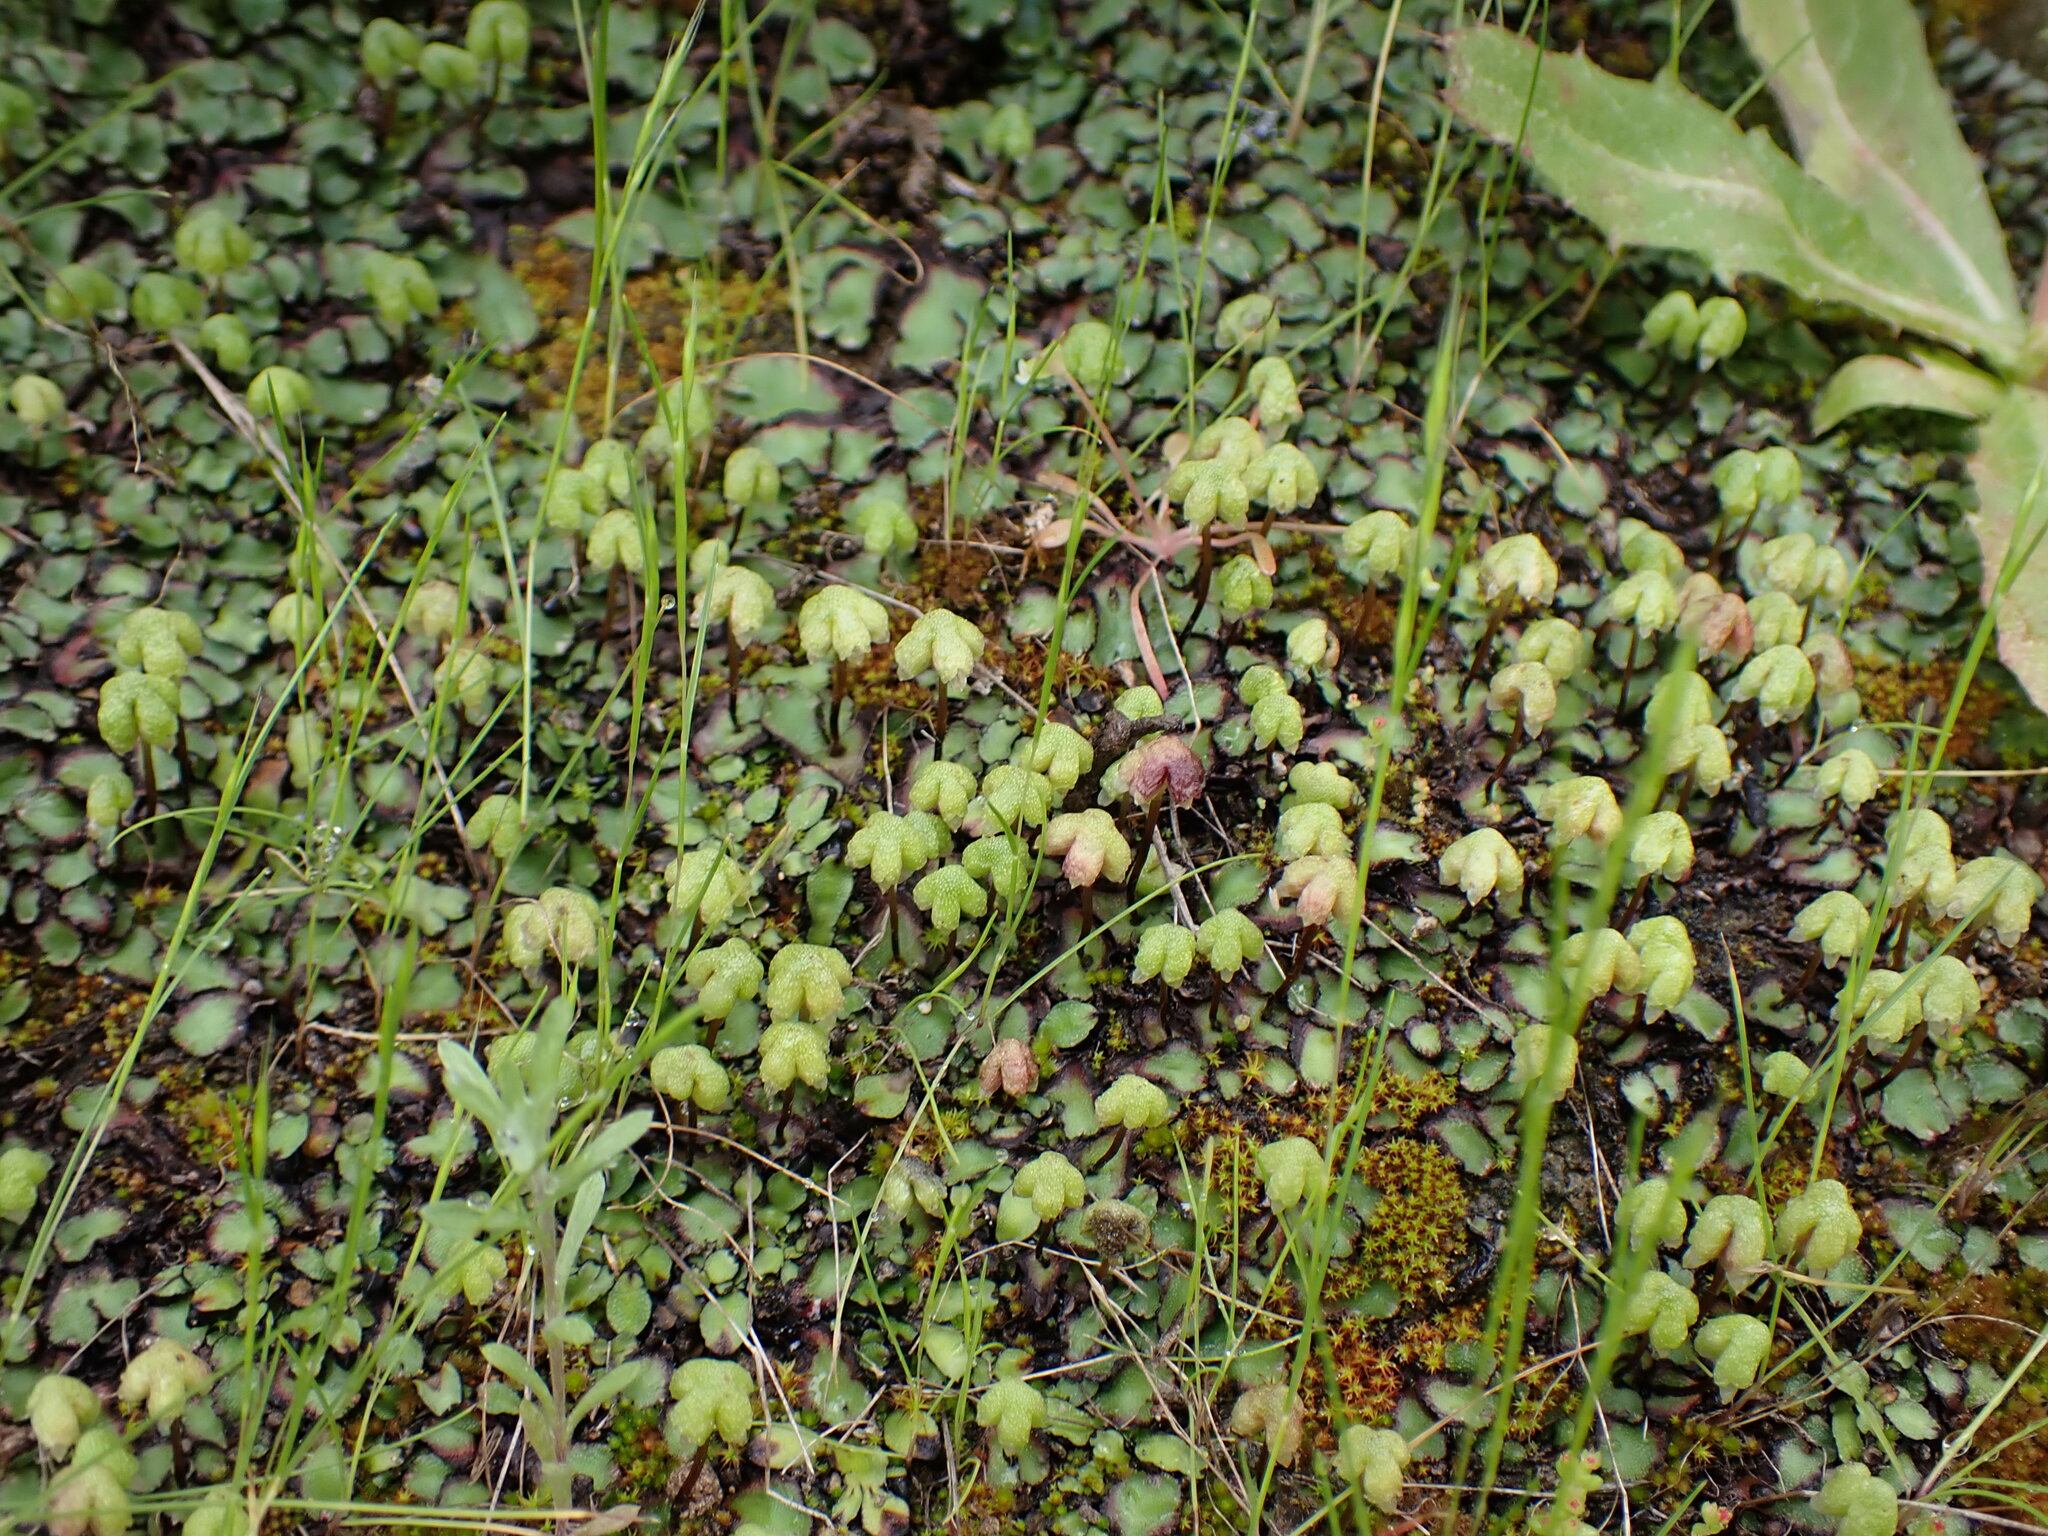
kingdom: Plantae
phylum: Marchantiophyta
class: Marchantiopsida
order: Marchantiales
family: Aytoniaceae
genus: Asterella
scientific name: Asterella californica
